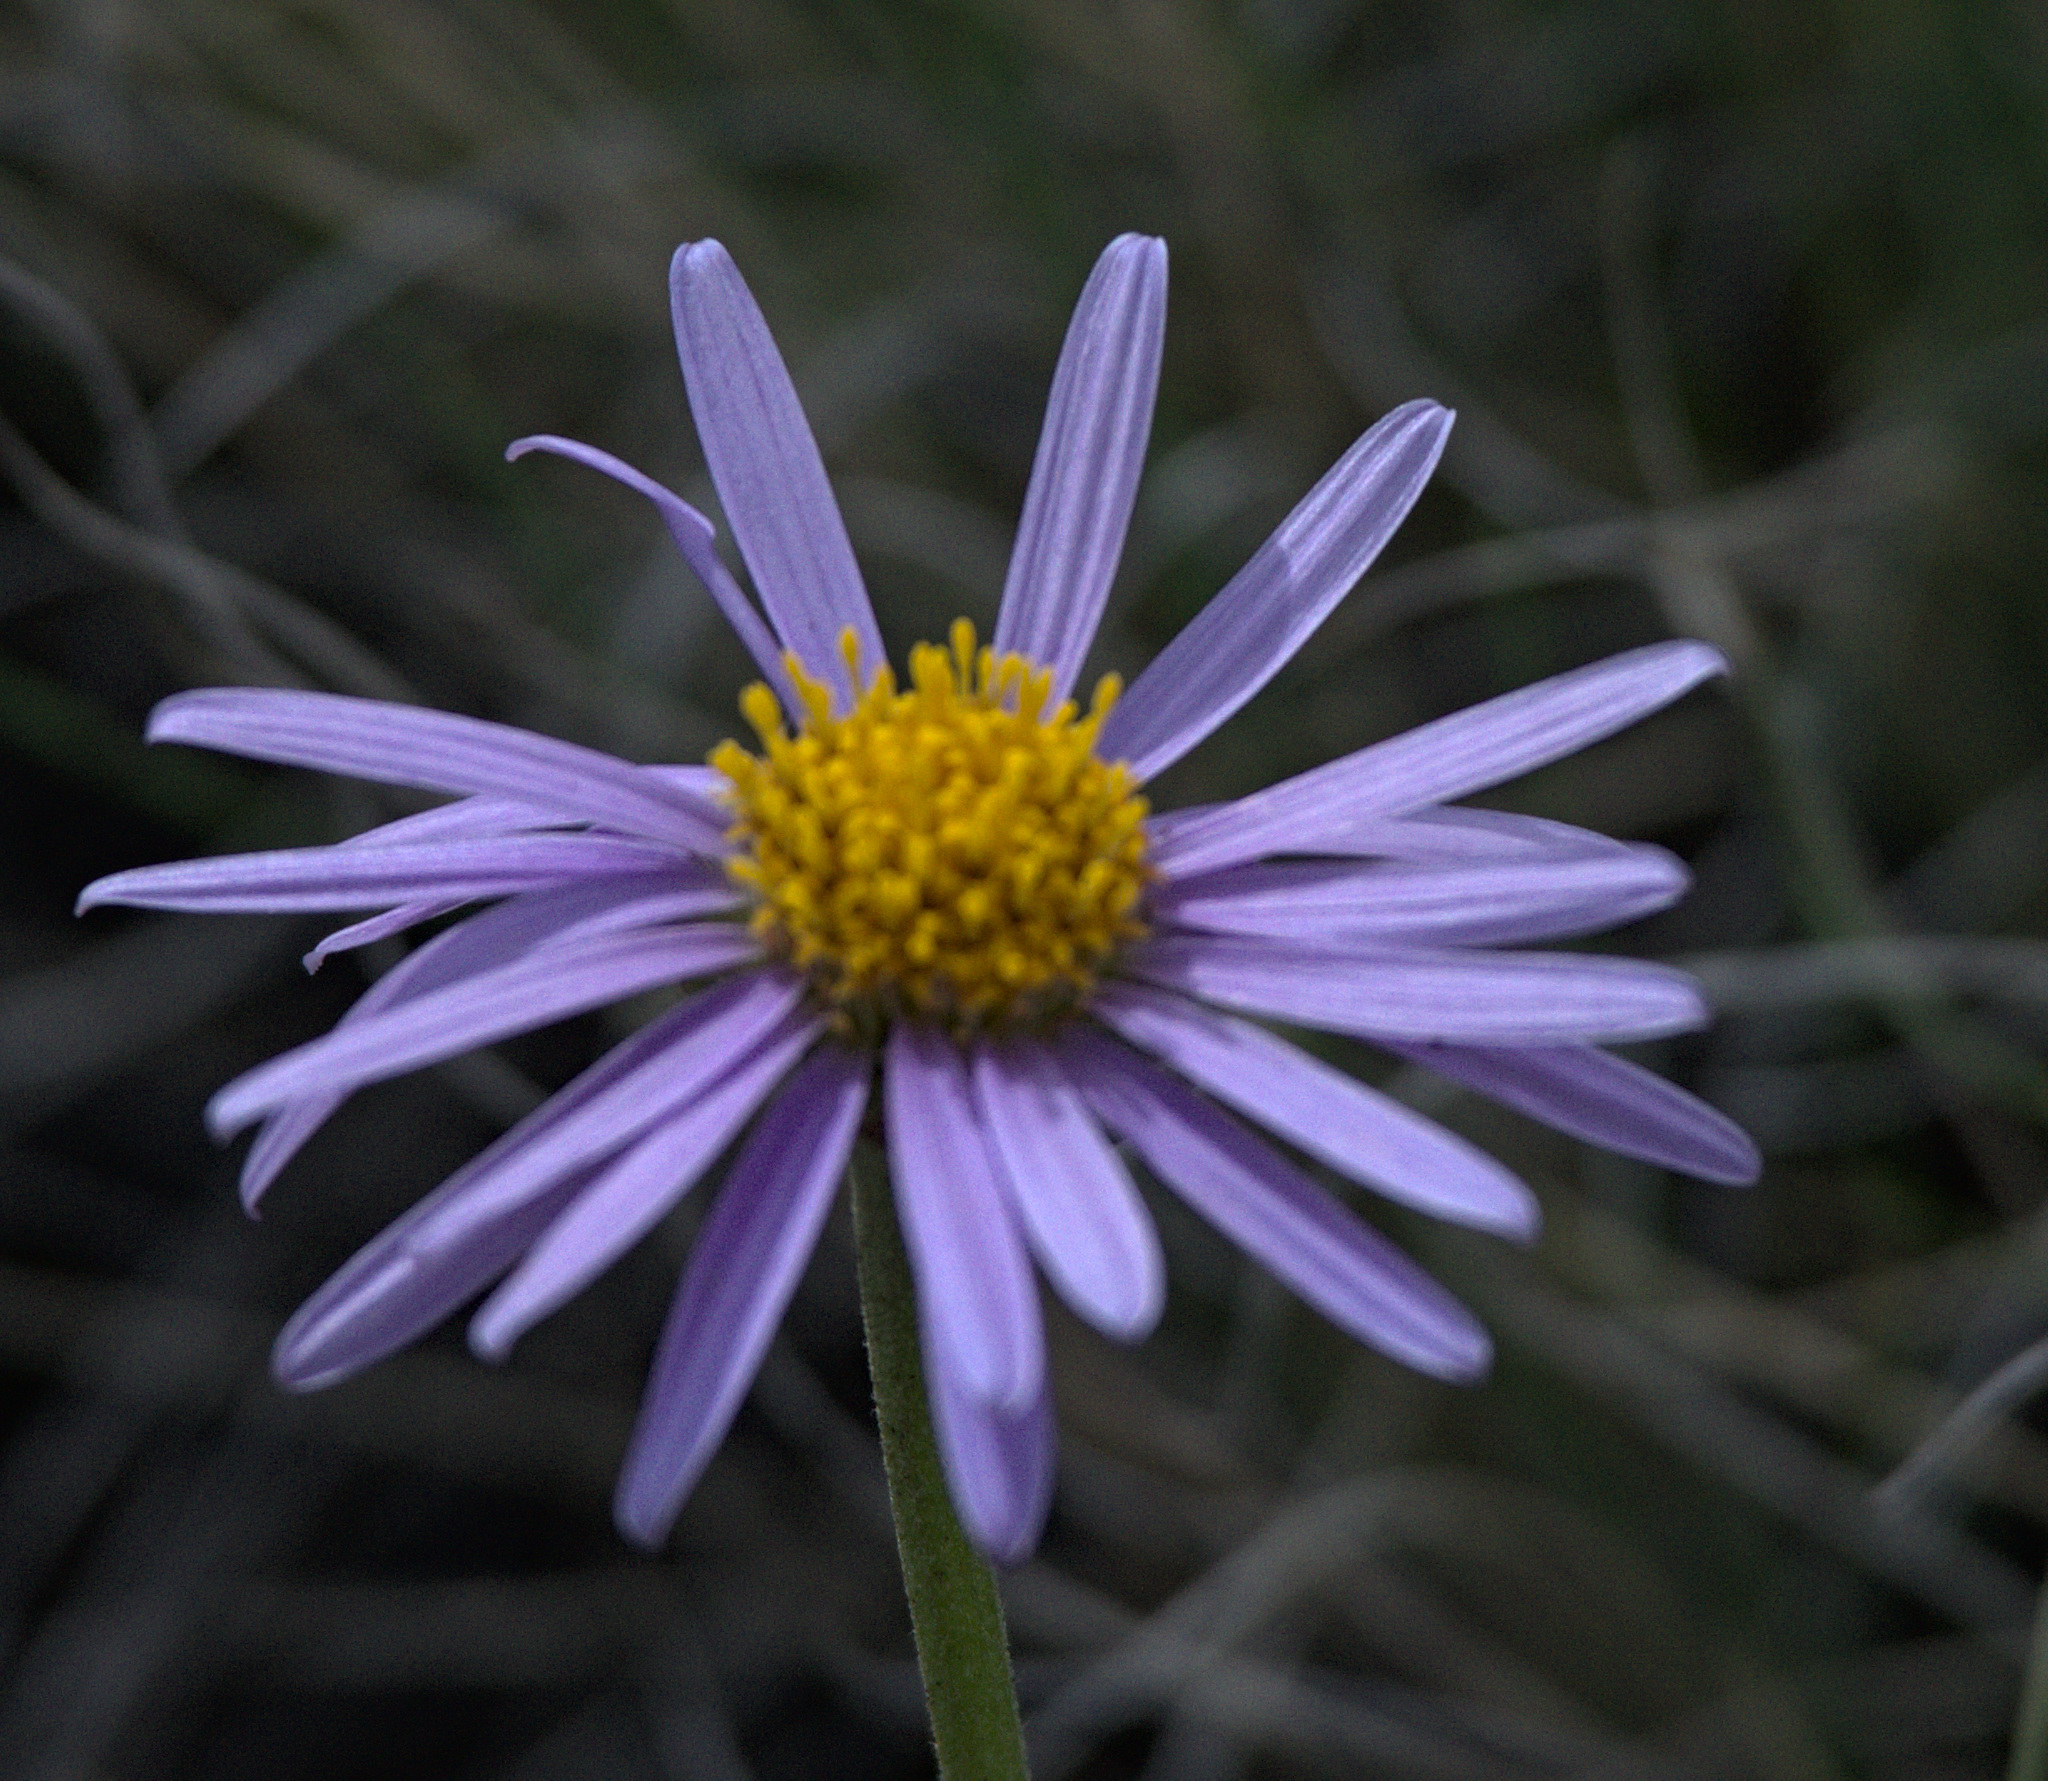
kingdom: Plantae
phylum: Tracheophyta
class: Magnoliopsida
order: Asterales
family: Asteraceae
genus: Aster
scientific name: Aster alpinus
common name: Alpine aster
